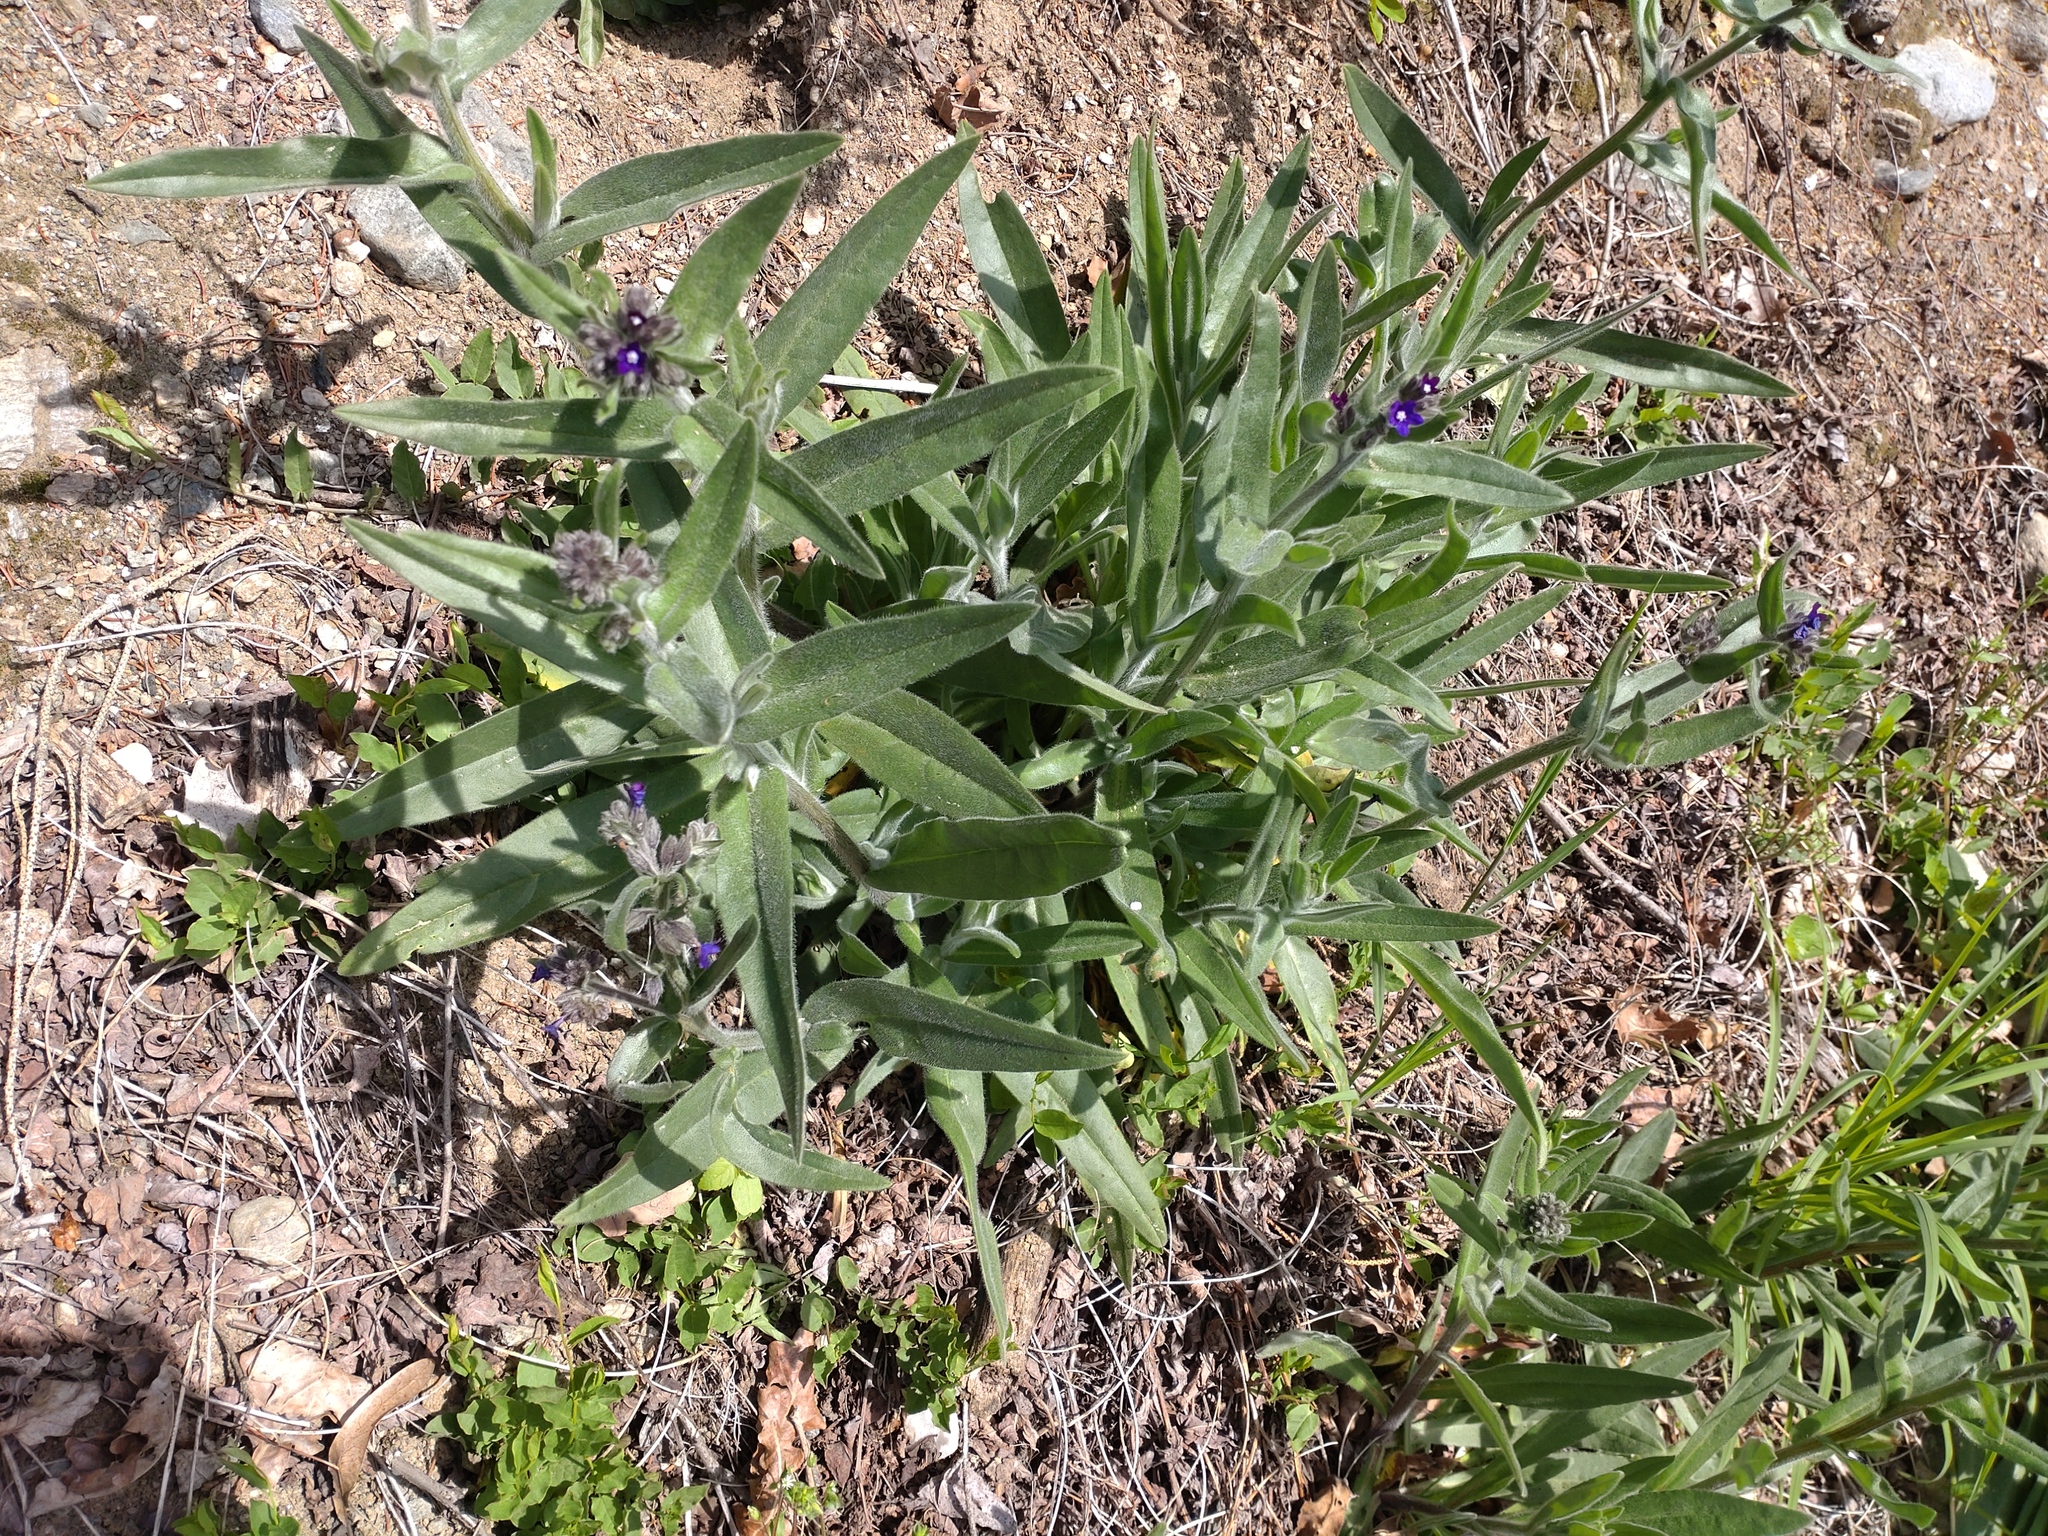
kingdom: Plantae
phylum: Tracheophyta
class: Magnoliopsida
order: Boraginales
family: Boraginaceae
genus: Anchusa
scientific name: Anchusa officinalis
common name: Alkanet
